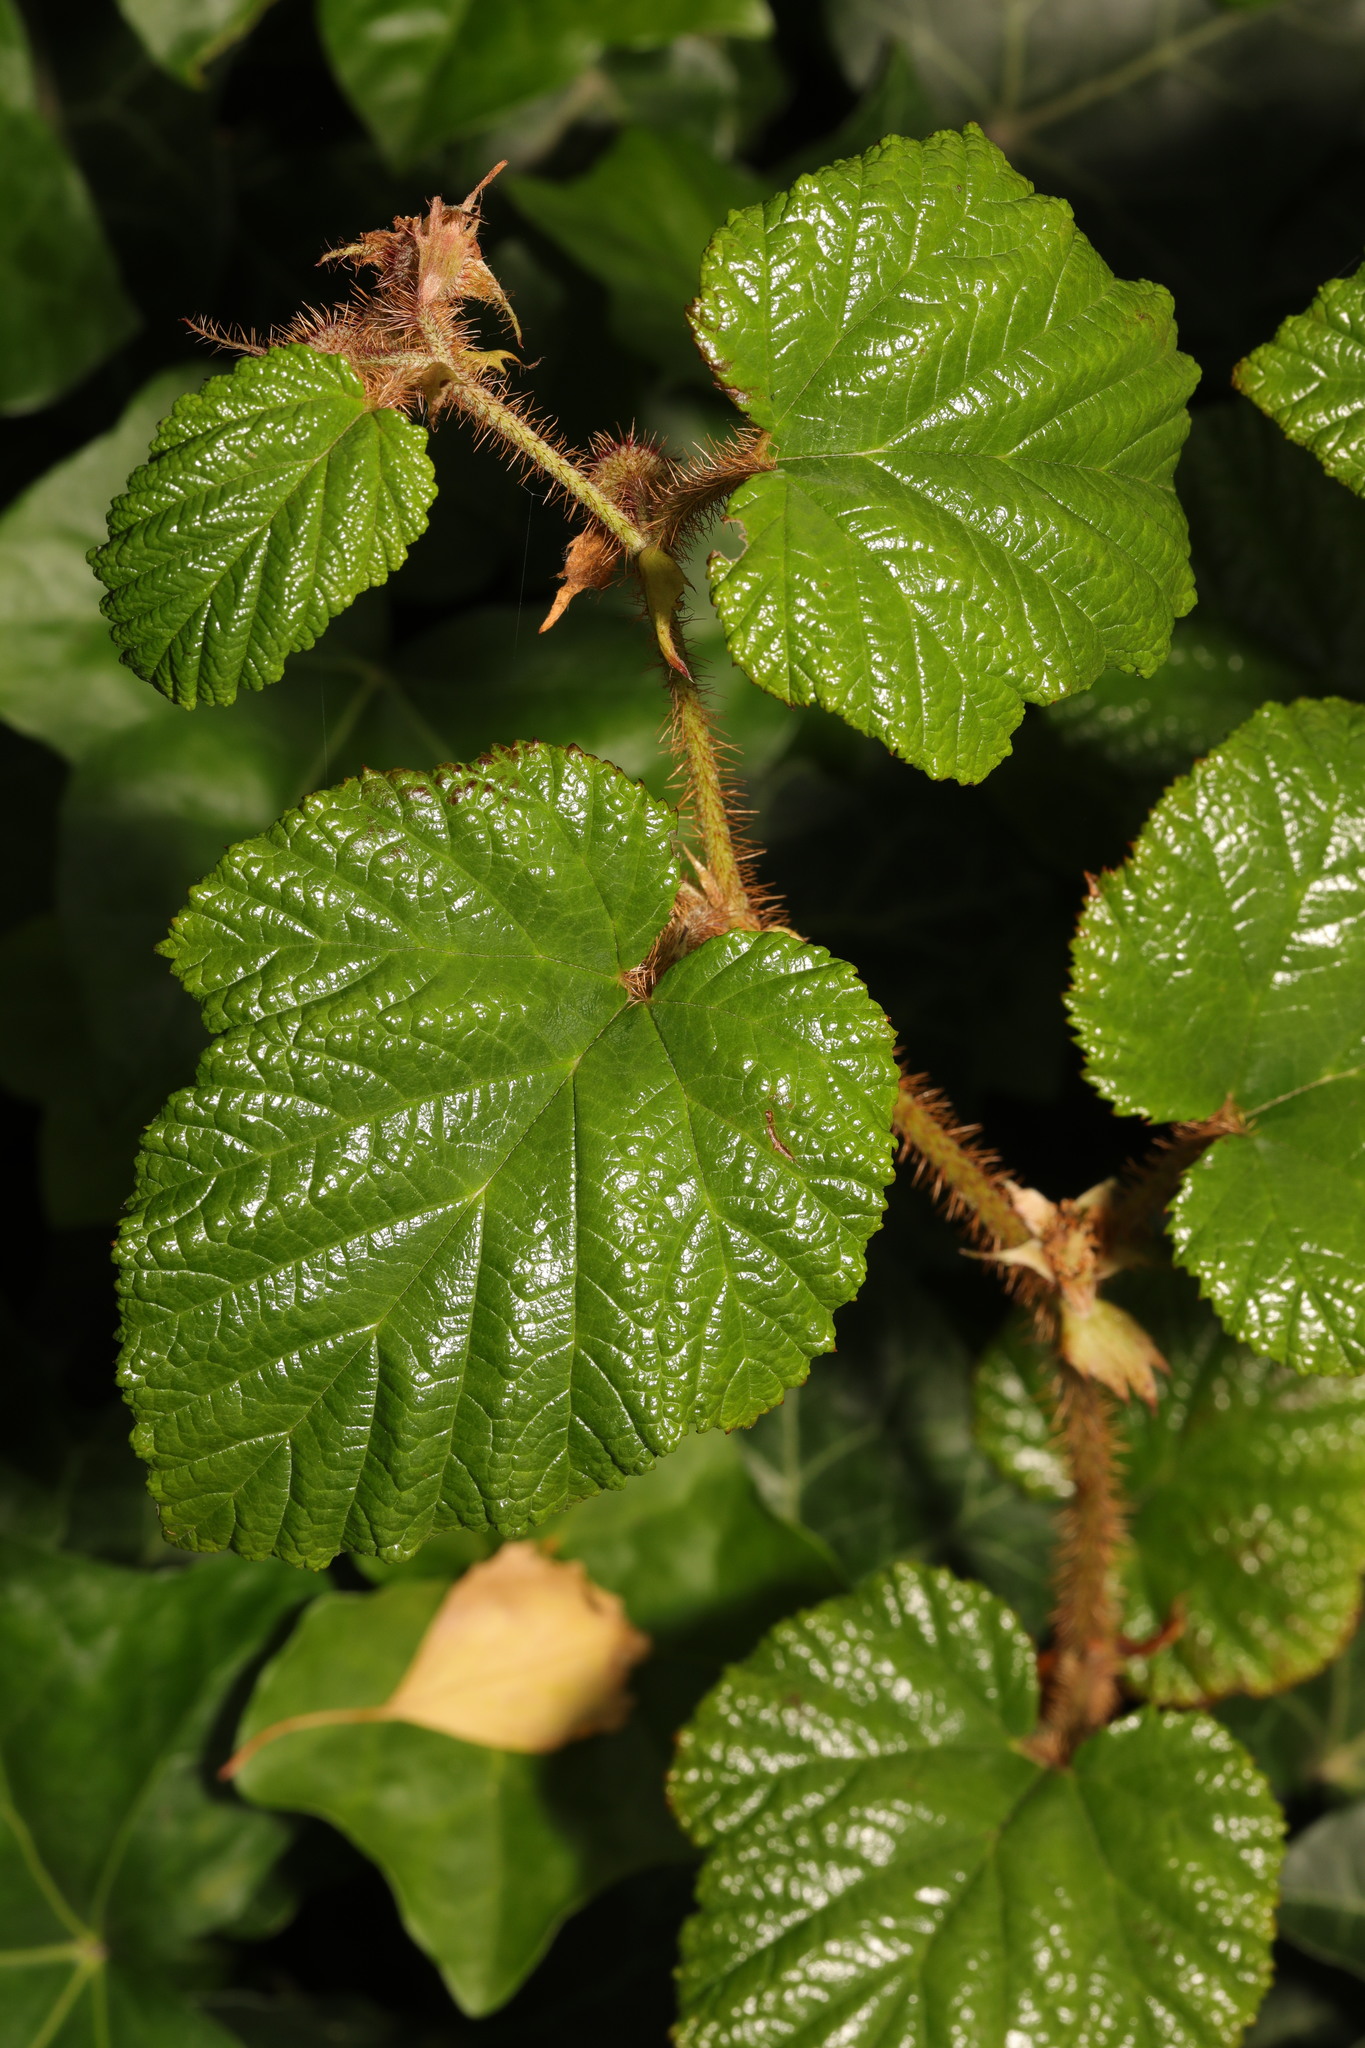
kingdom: Plantae
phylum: Tracheophyta
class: Magnoliopsida
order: Rosales
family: Rosaceae
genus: Rubus
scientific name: Rubus tricolor
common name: Chinese bramble
